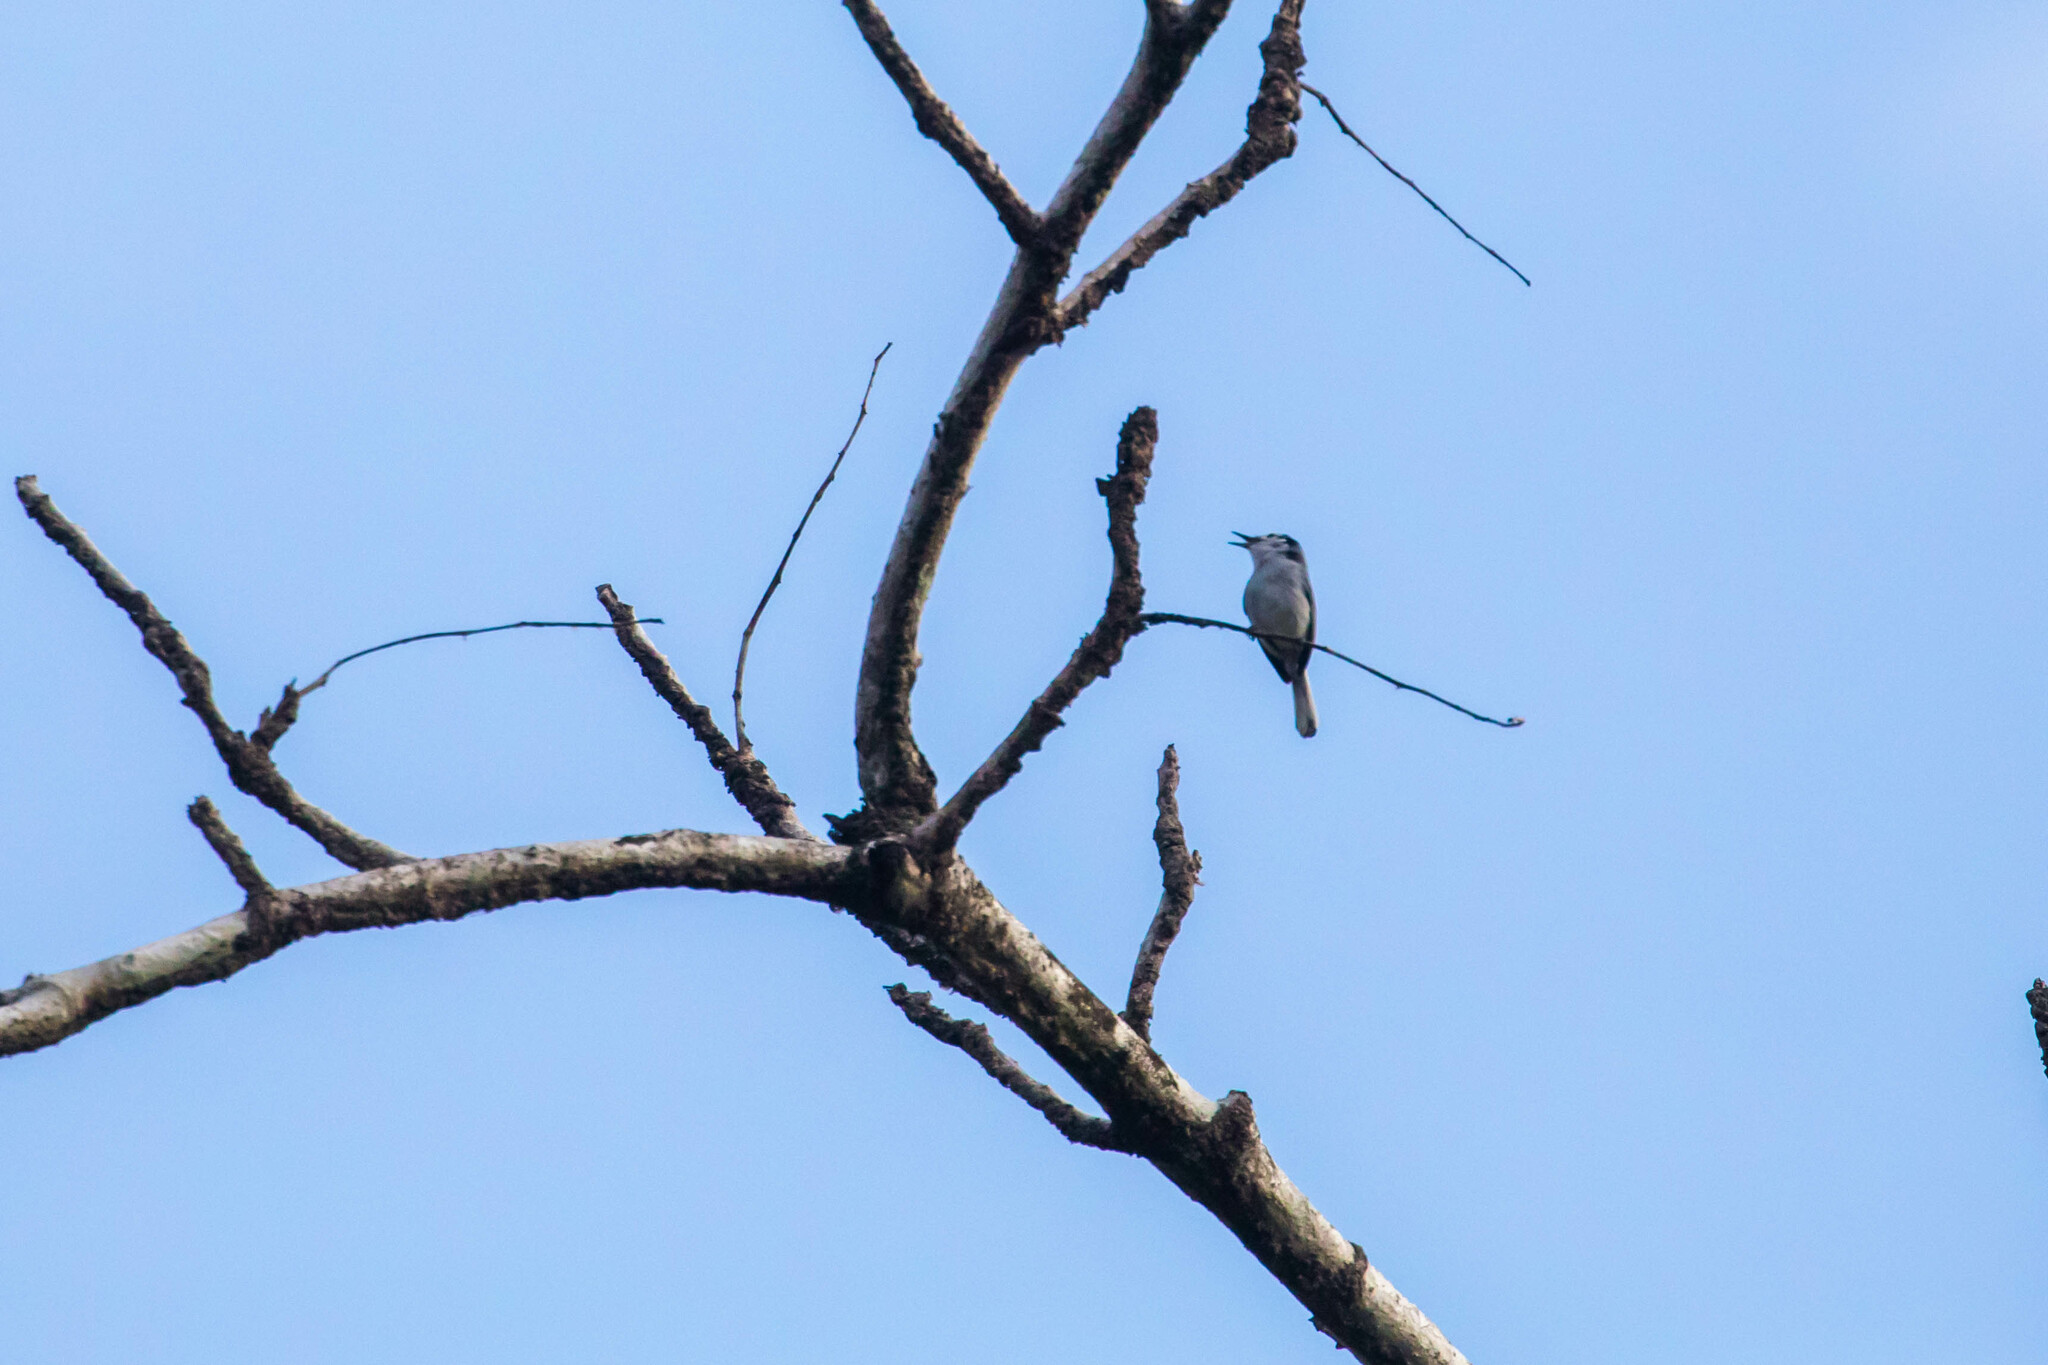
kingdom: Animalia
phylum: Chordata
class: Aves
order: Passeriformes
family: Polioptilidae
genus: Polioptila
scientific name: Polioptila plumbea
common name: Tropical gnatcatcher
